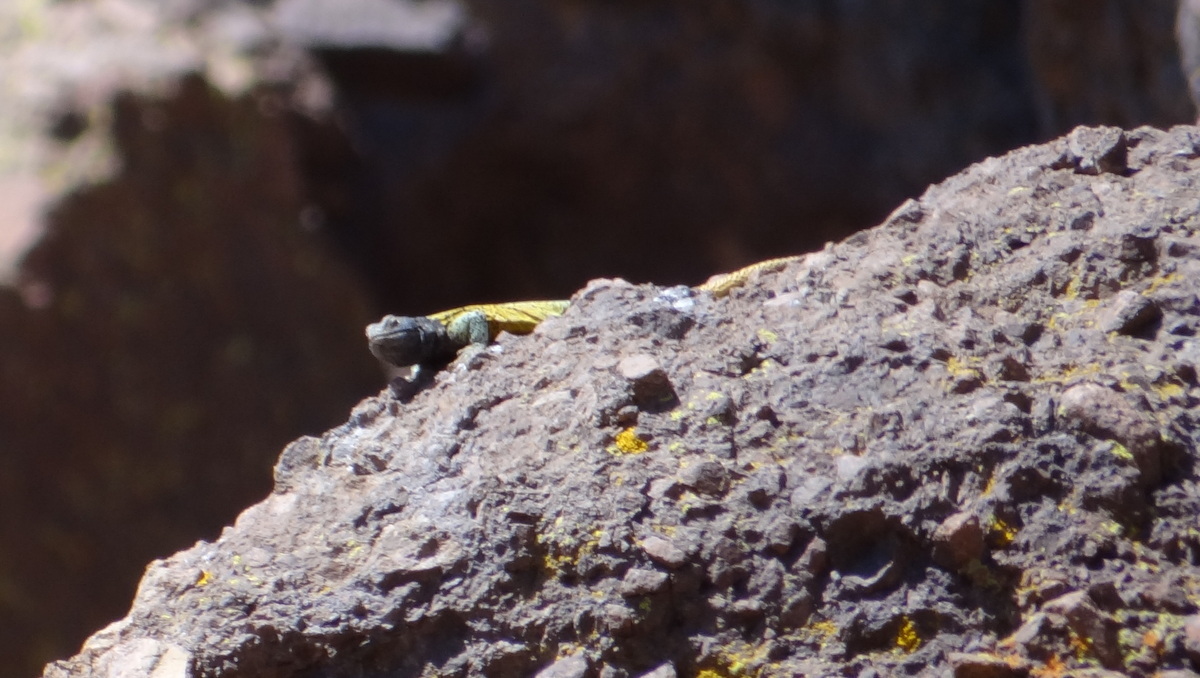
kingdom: Animalia
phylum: Chordata
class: Squamata
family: Liolaemidae
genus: Phymaturus
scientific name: Phymaturus verdugo
